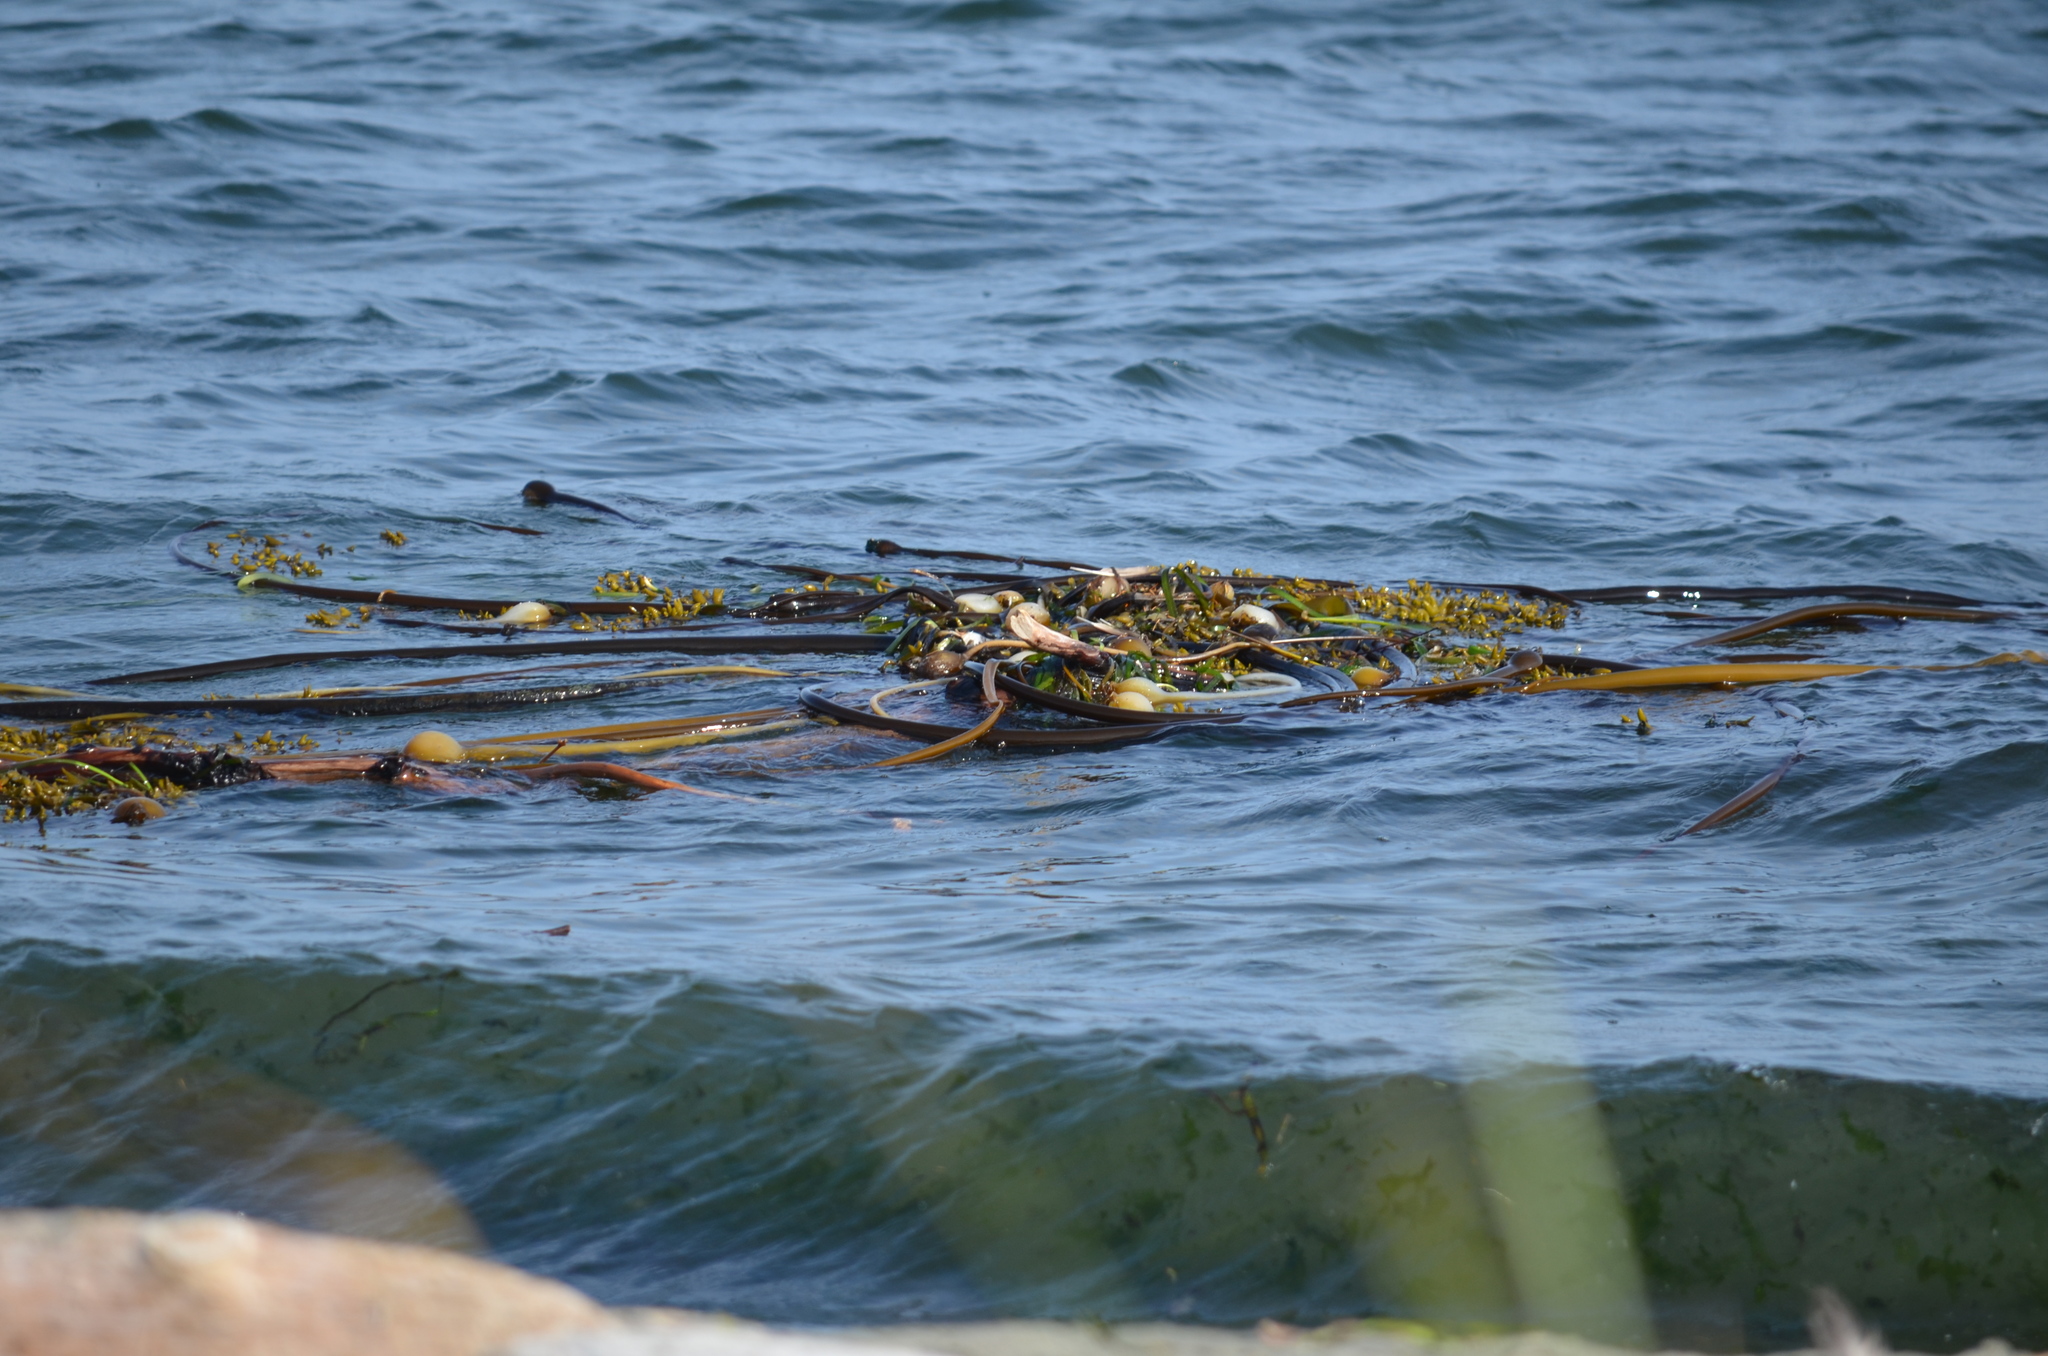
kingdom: Chromista
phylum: Ochrophyta
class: Phaeophyceae
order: Laminariales
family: Laminariaceae
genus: Nereocystis
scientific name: Nereocystis luetkeana
